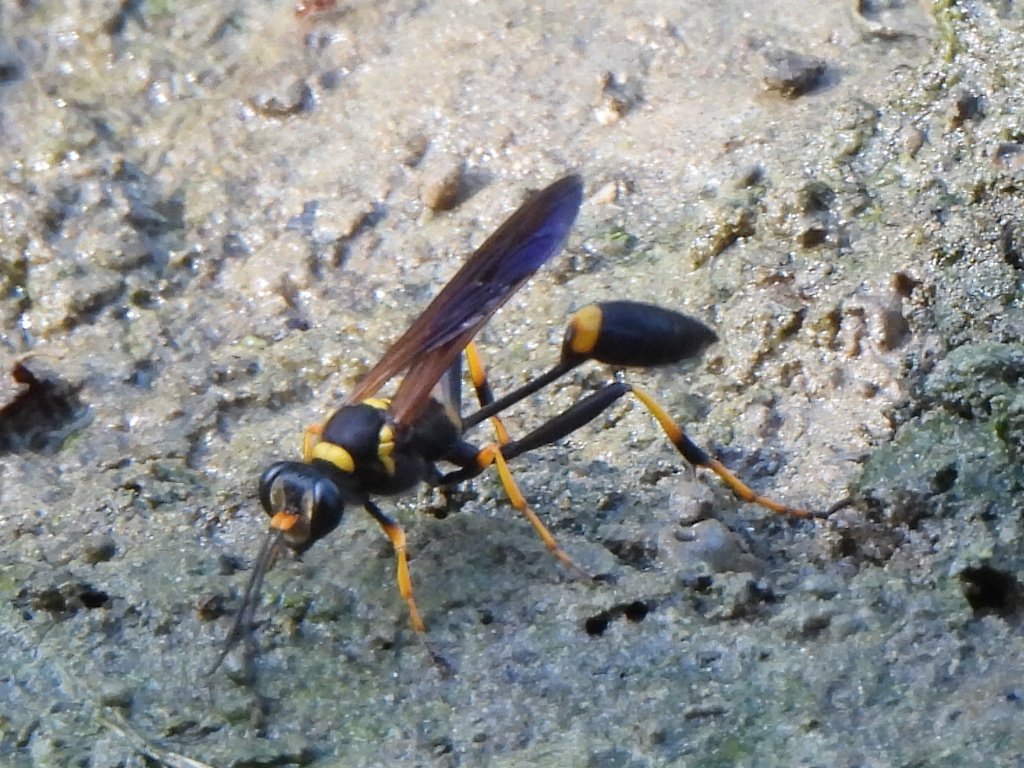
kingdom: Animalia
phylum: Arthropoda
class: Insecta
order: Hymenoptera
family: Sphecidae
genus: Sceliphron
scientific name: Sceliphron caementarium
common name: Mud dauber
